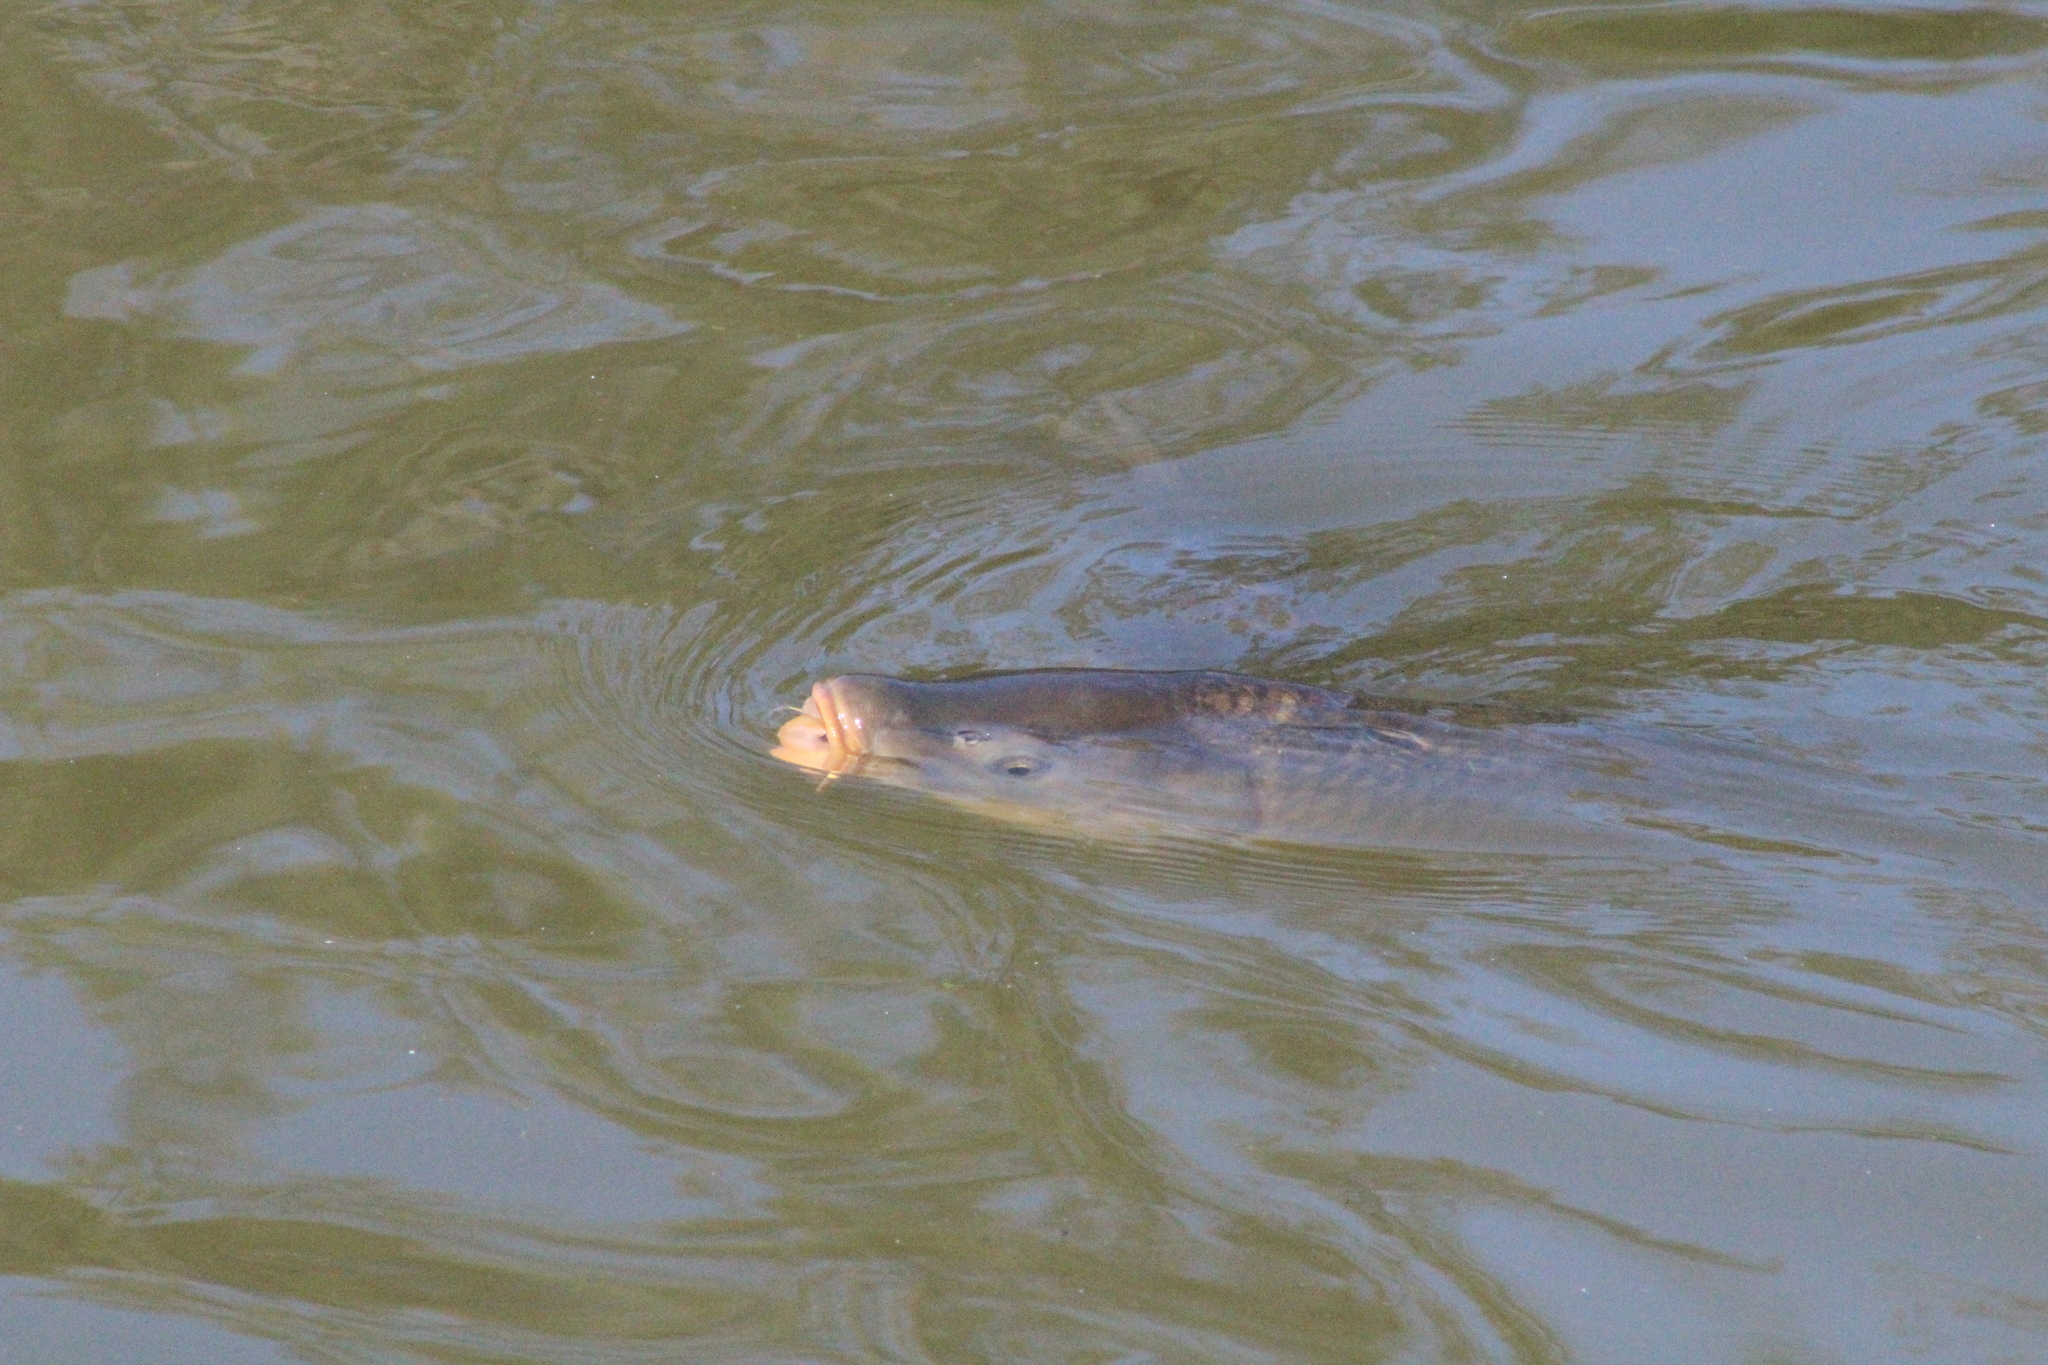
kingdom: Animalia
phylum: Chordata
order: Cypriniformes
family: Cyprinidae
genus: Cyprinus
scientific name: Cyprinus carpio
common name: Common carp
